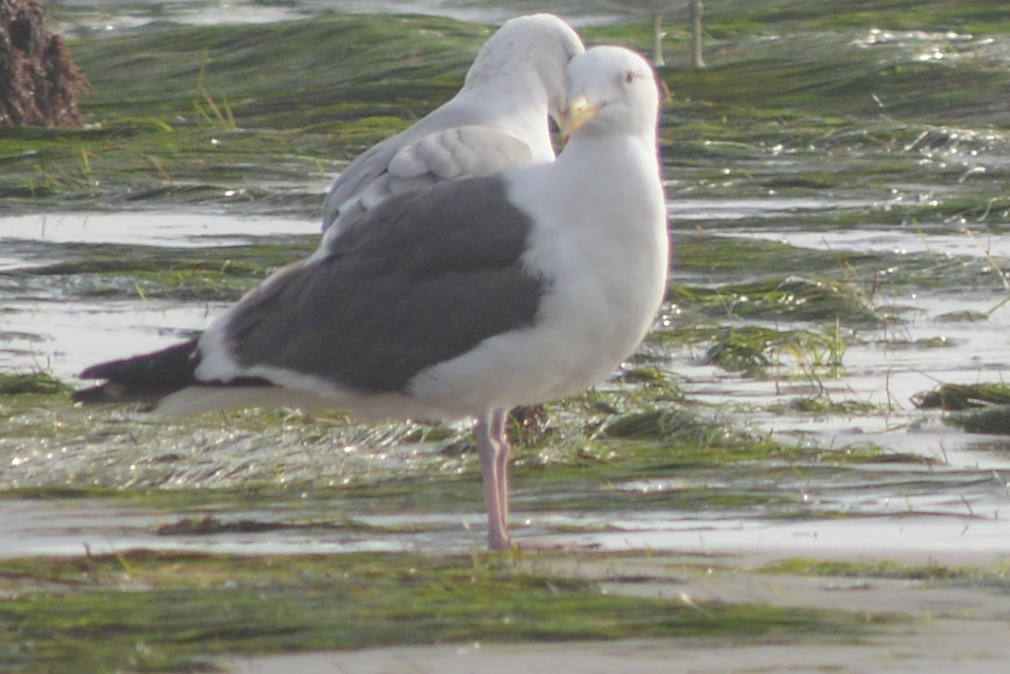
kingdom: Animalia
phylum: Chordata
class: Aves
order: Charadriiformes
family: Laridae
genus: Larus
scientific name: Larus occidentalis
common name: Western gull
